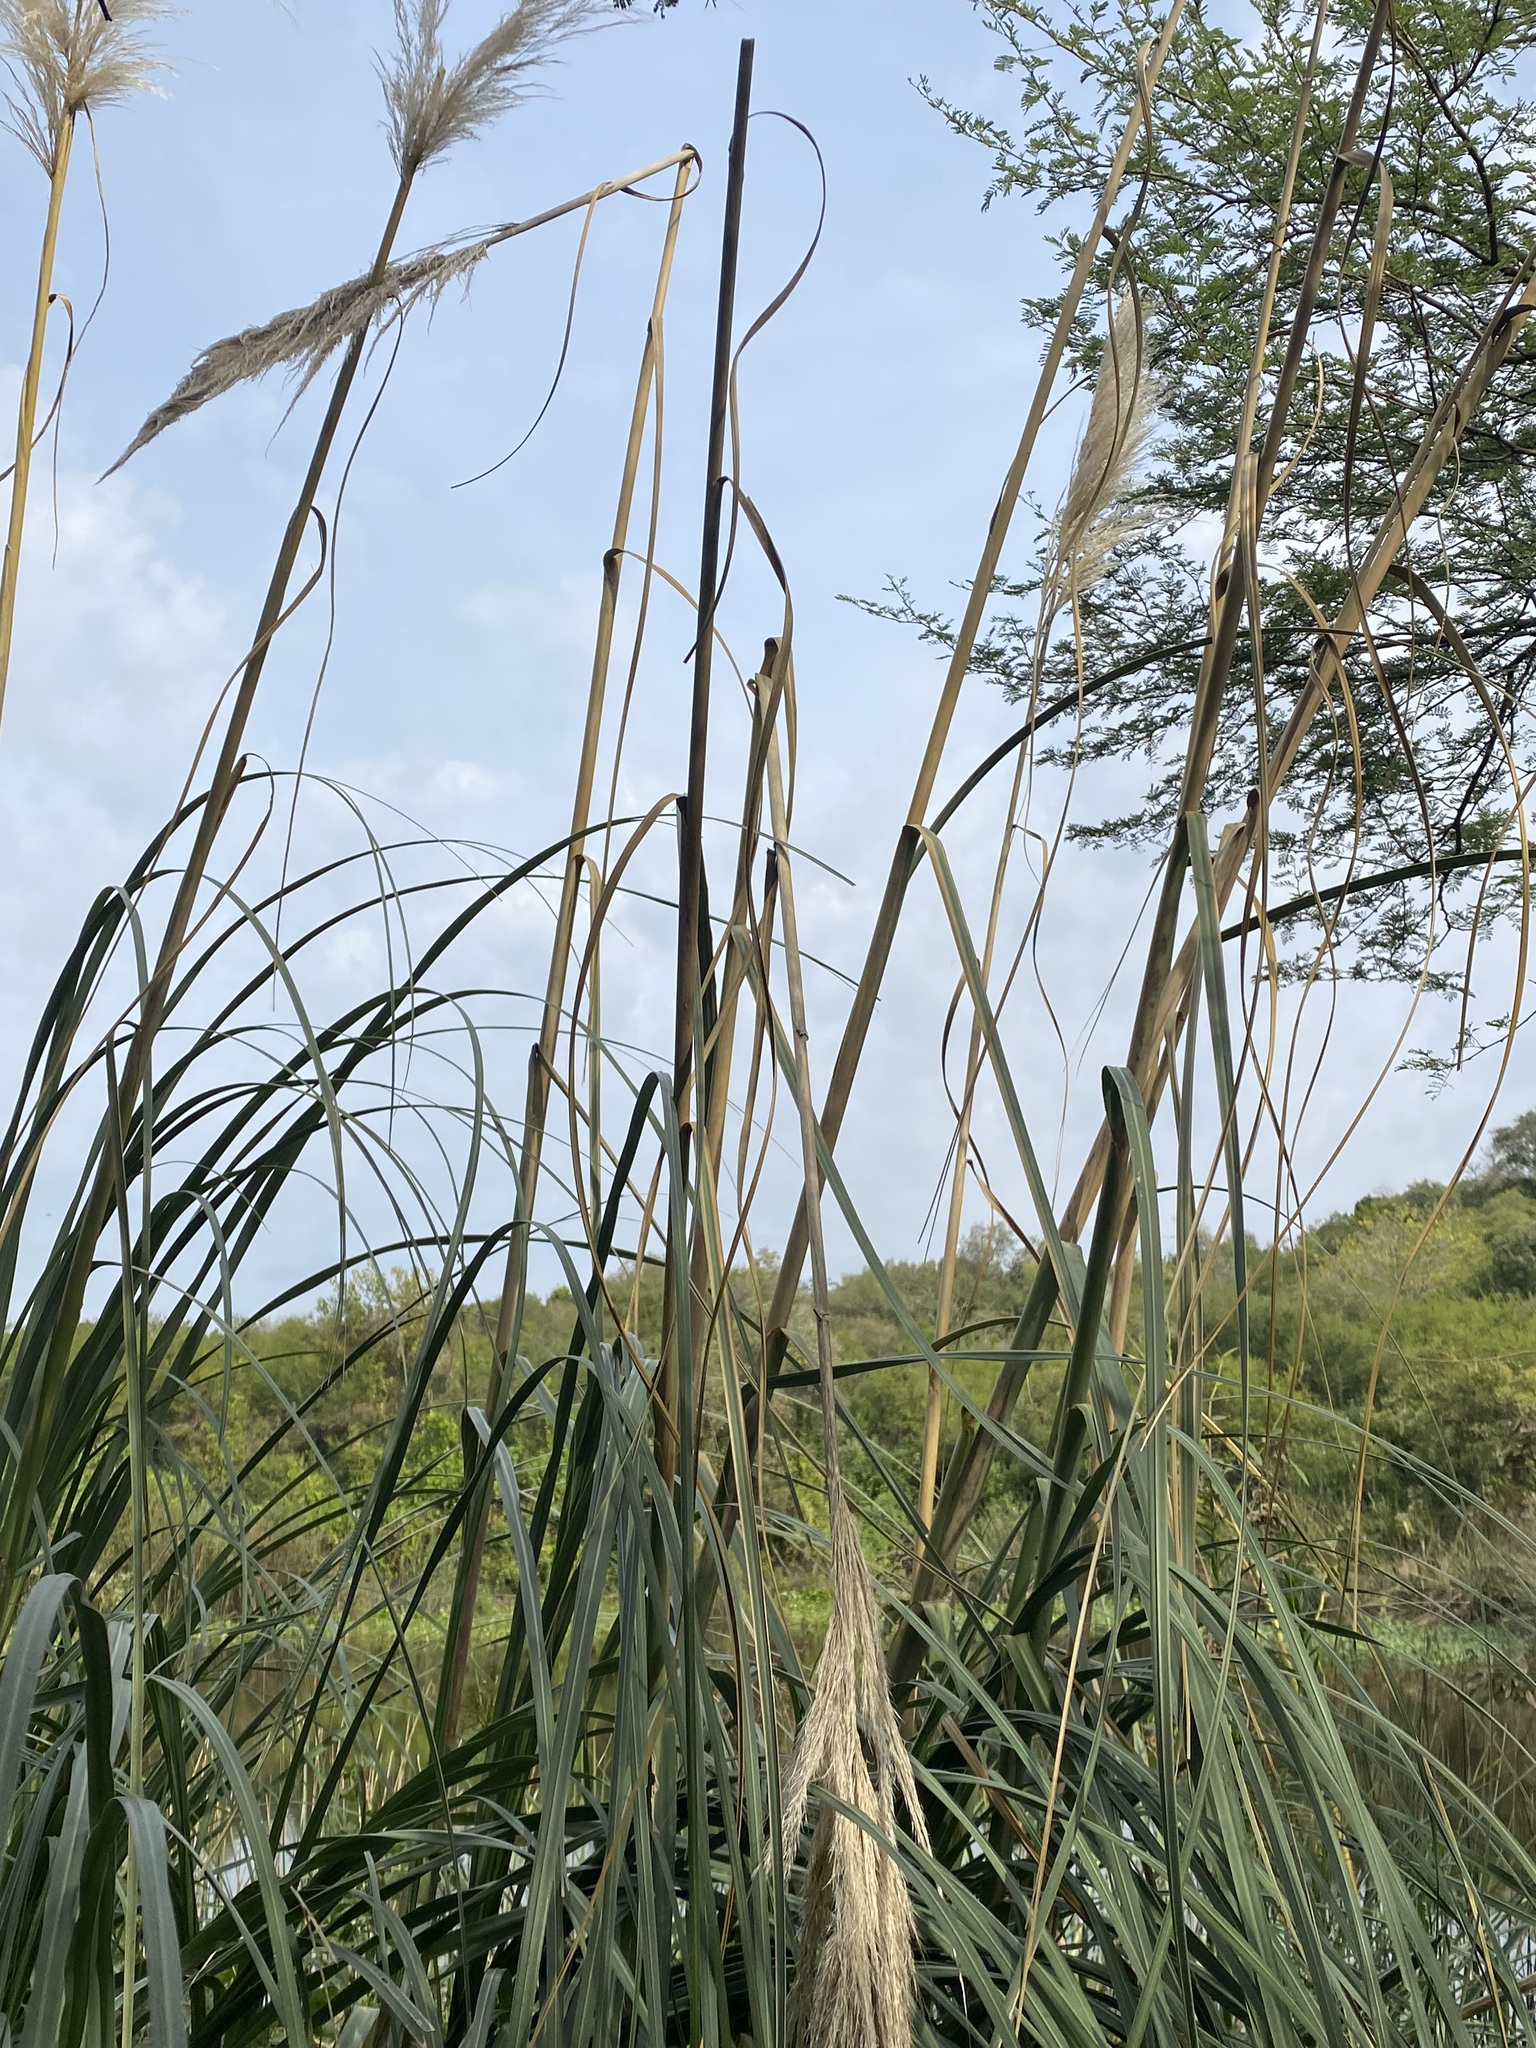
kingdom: Plantae
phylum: Tracheophyta
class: Liliopsida
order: Poales
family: Poaceae
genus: Cortaderia
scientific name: Cortaderia selloana
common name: Uruguayan pampas grass
